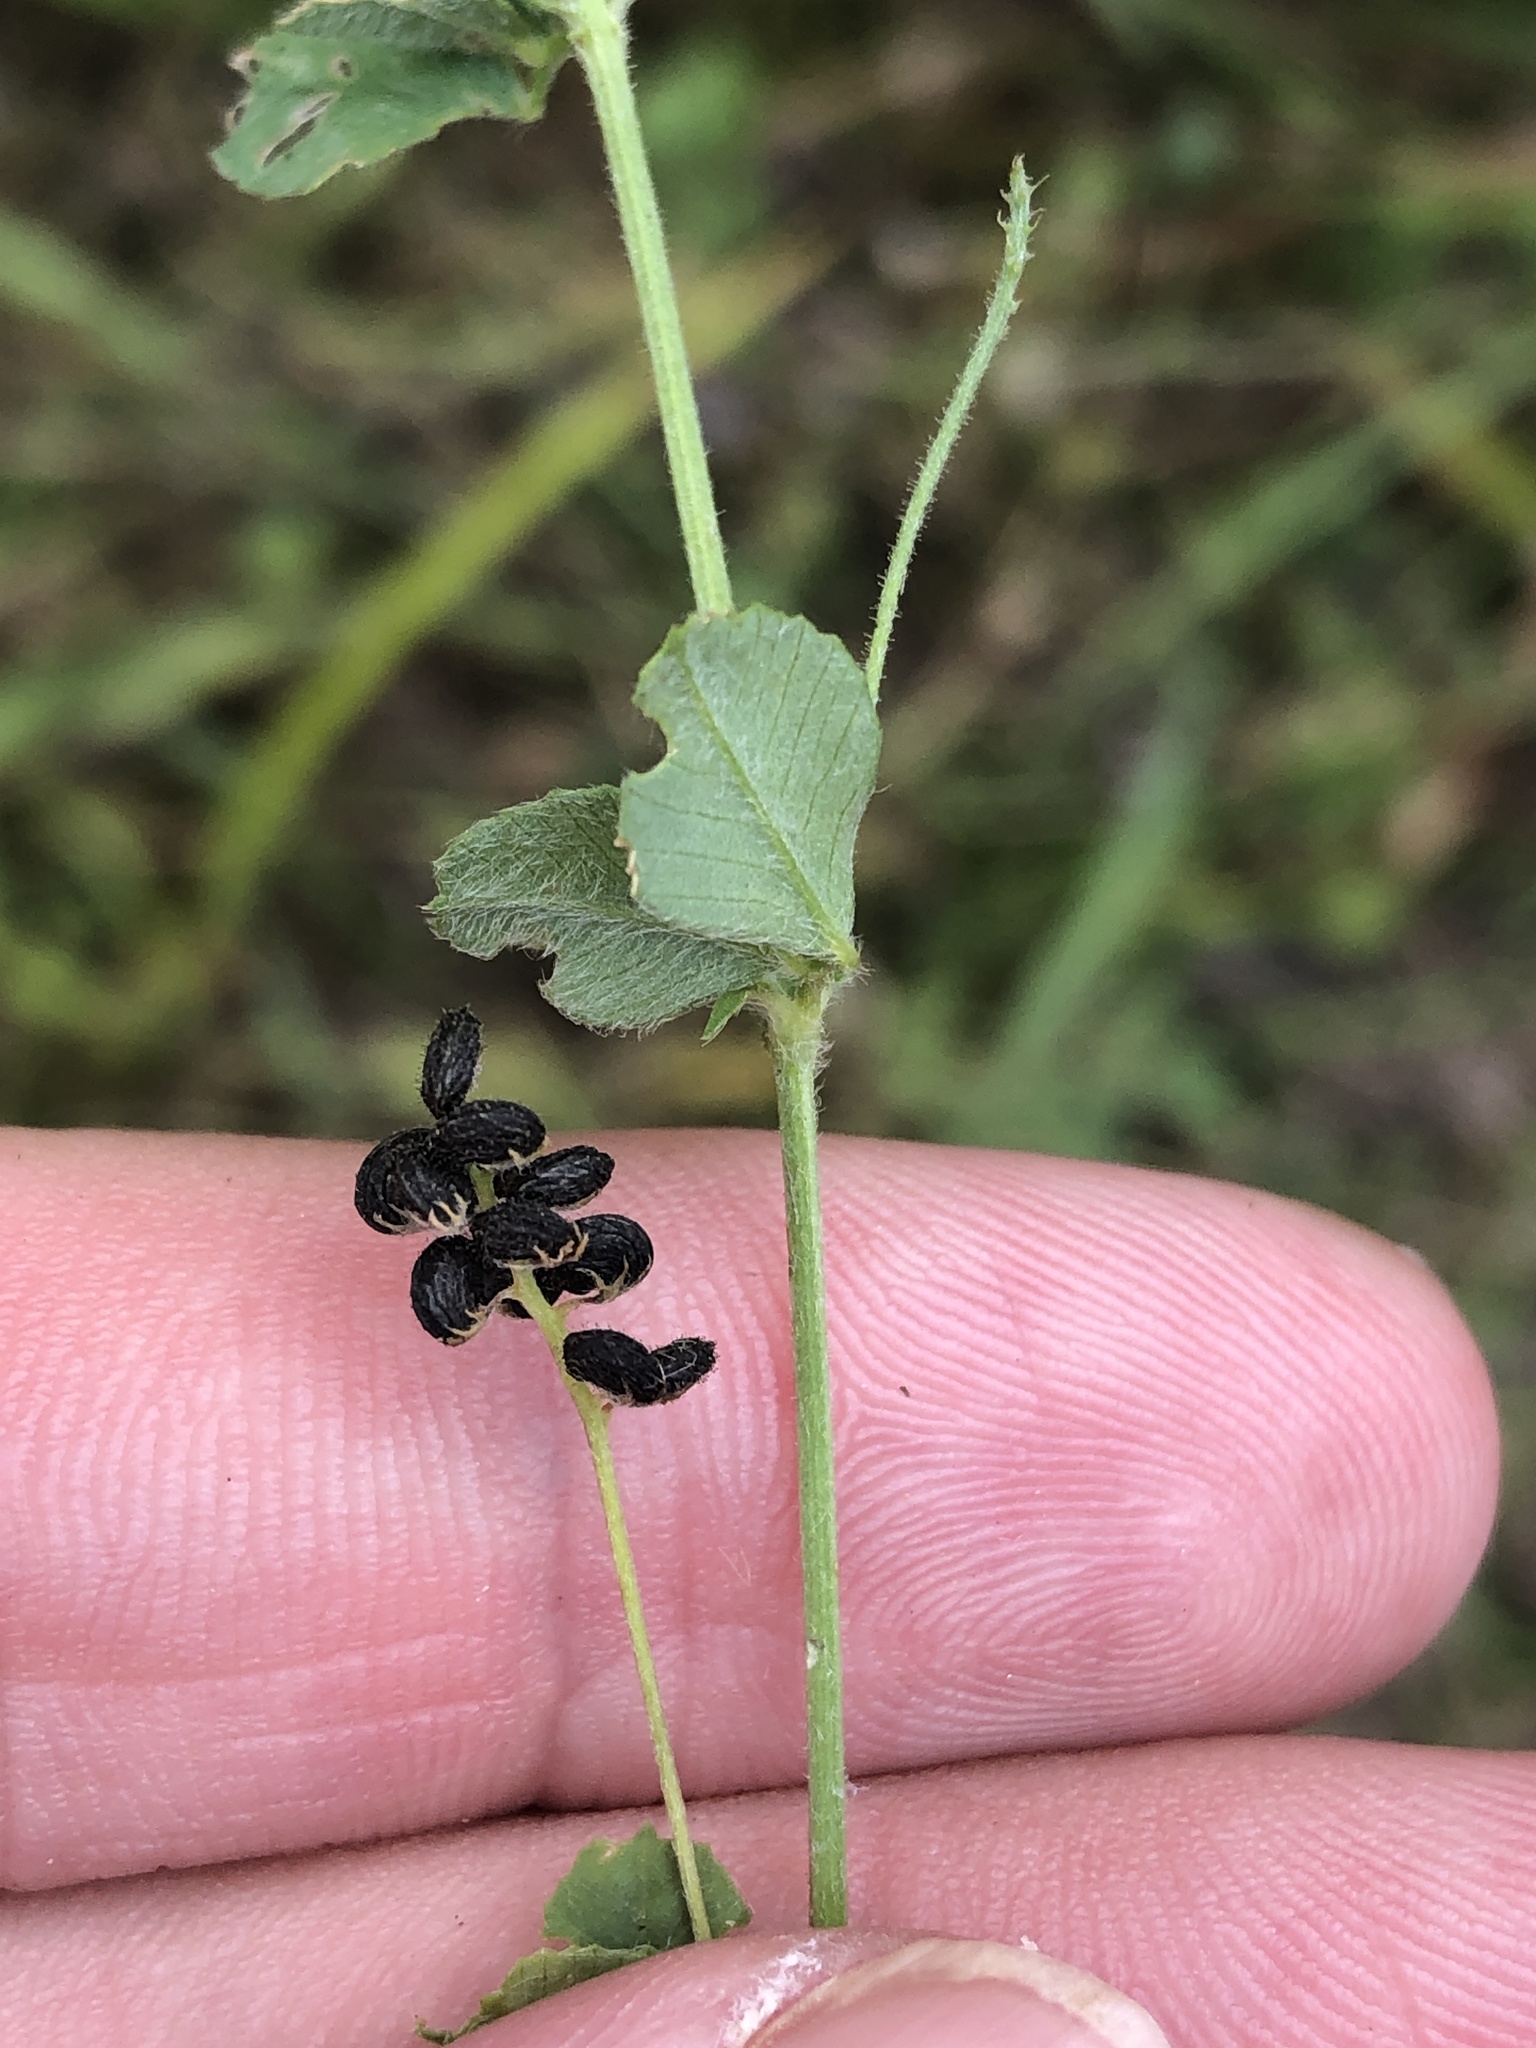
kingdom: Plantae
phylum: Tracheophyta
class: Magnoliopsida
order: Fabales
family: Fabaceae
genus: Medicago
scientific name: Medicago lupulina
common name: Black medick
